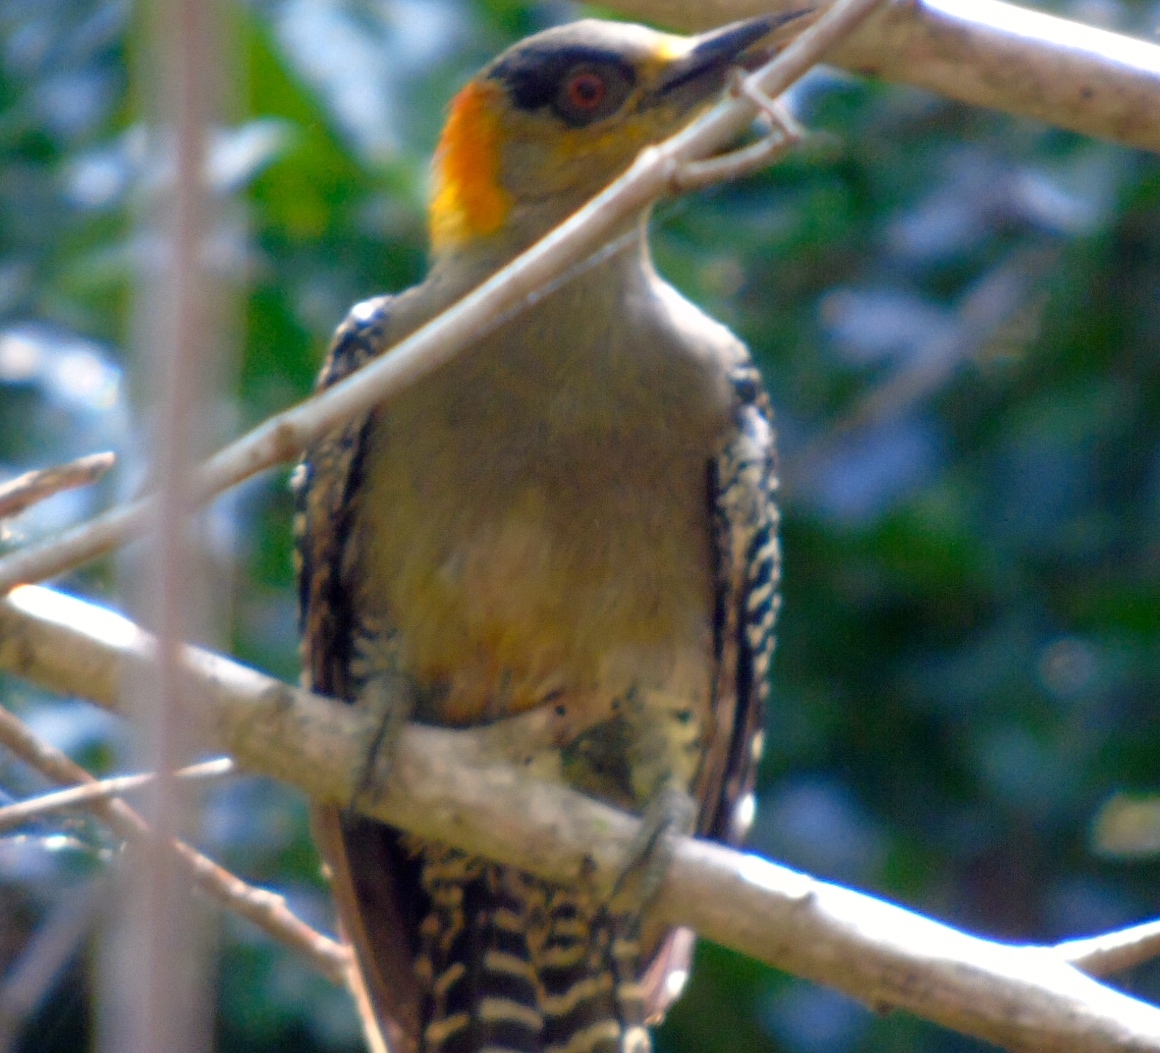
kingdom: Animalia
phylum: Chordata
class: Aves
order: Piciformes
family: Picidae
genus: Melanerpes
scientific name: Melanerpes chrysogenys
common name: Golden-cheeked woodpecker
